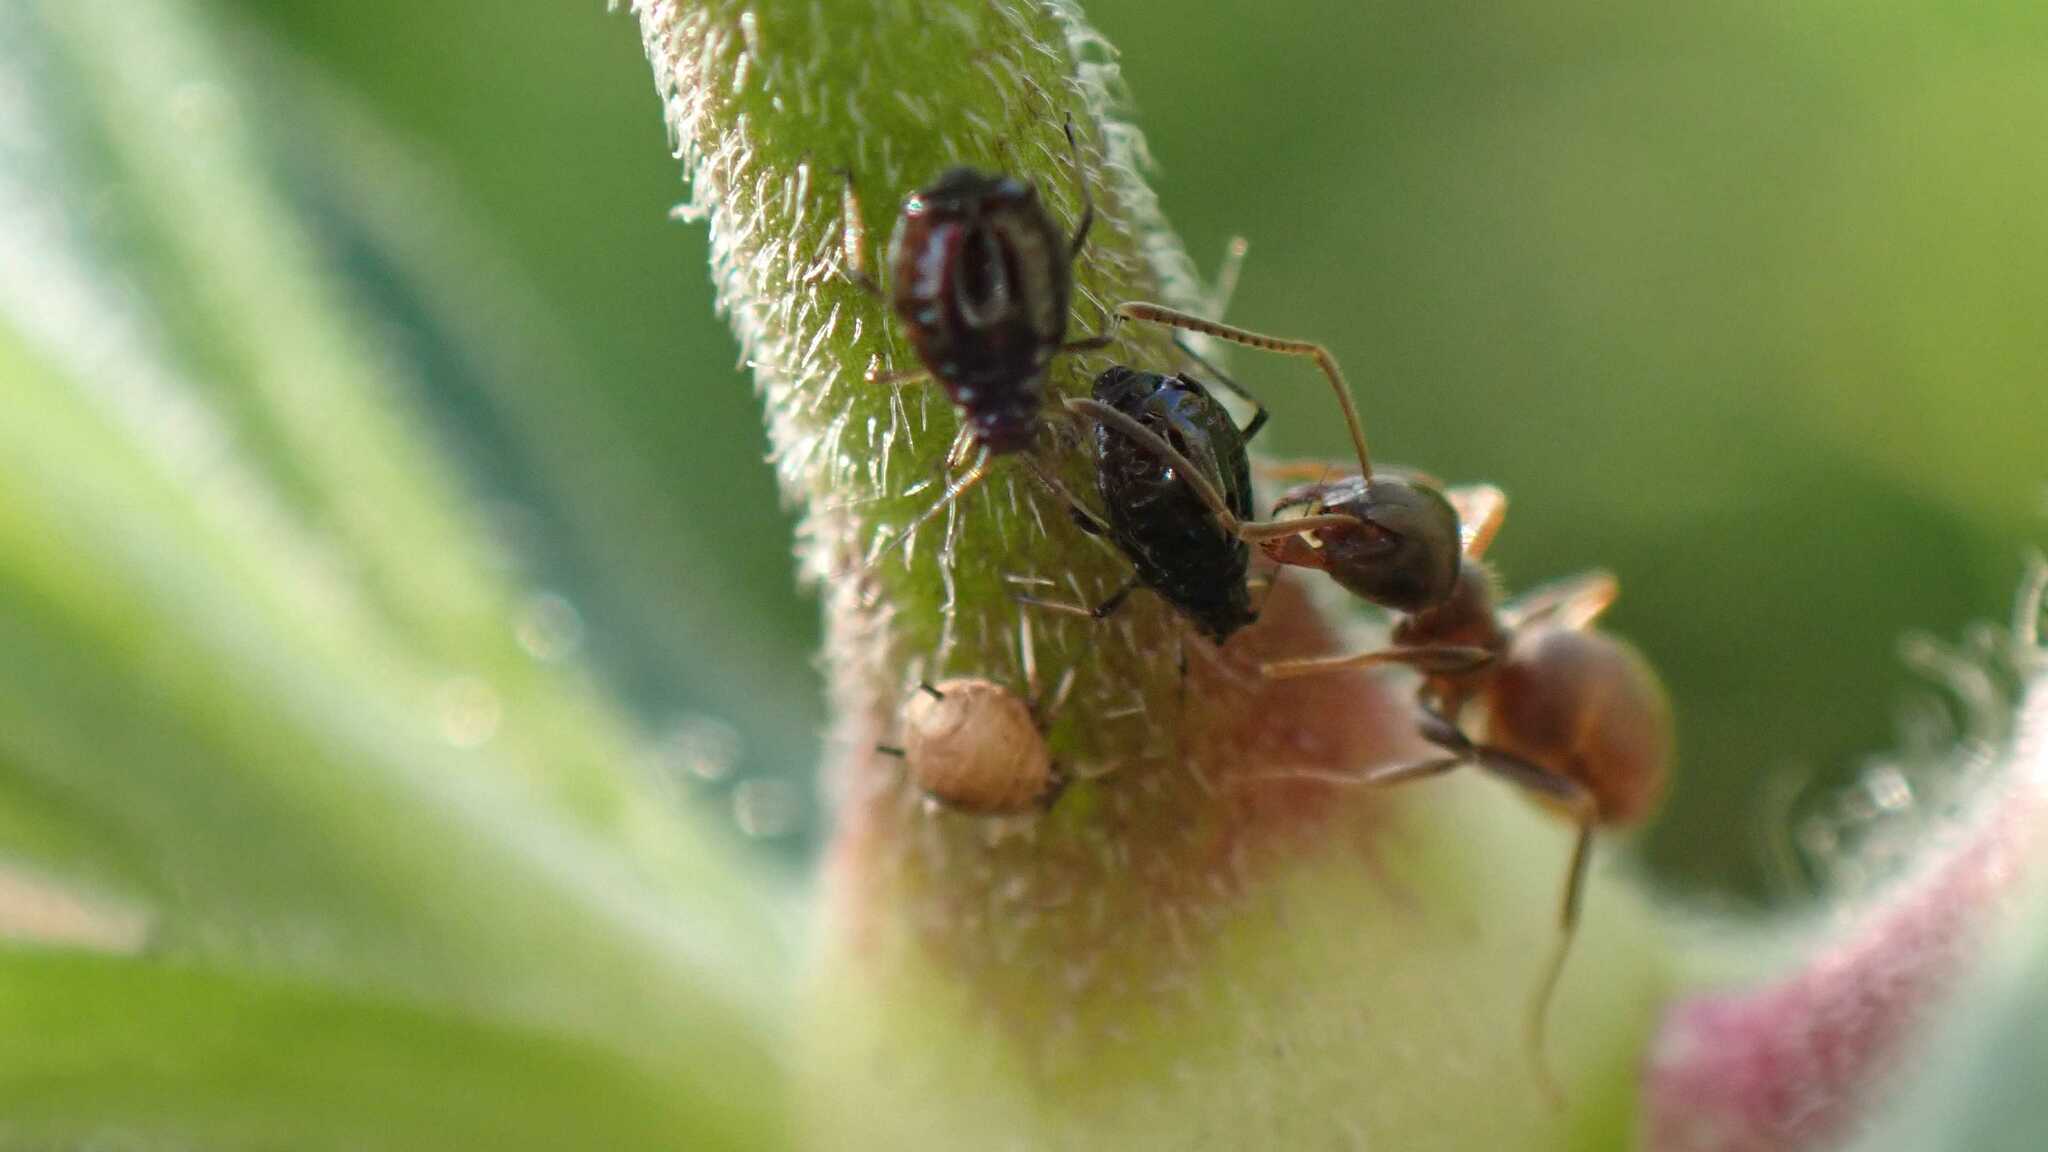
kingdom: Animalia
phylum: Arthropoda
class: Insecta
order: Hymenoptera
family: Formicidae
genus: Lasius
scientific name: Lasius
